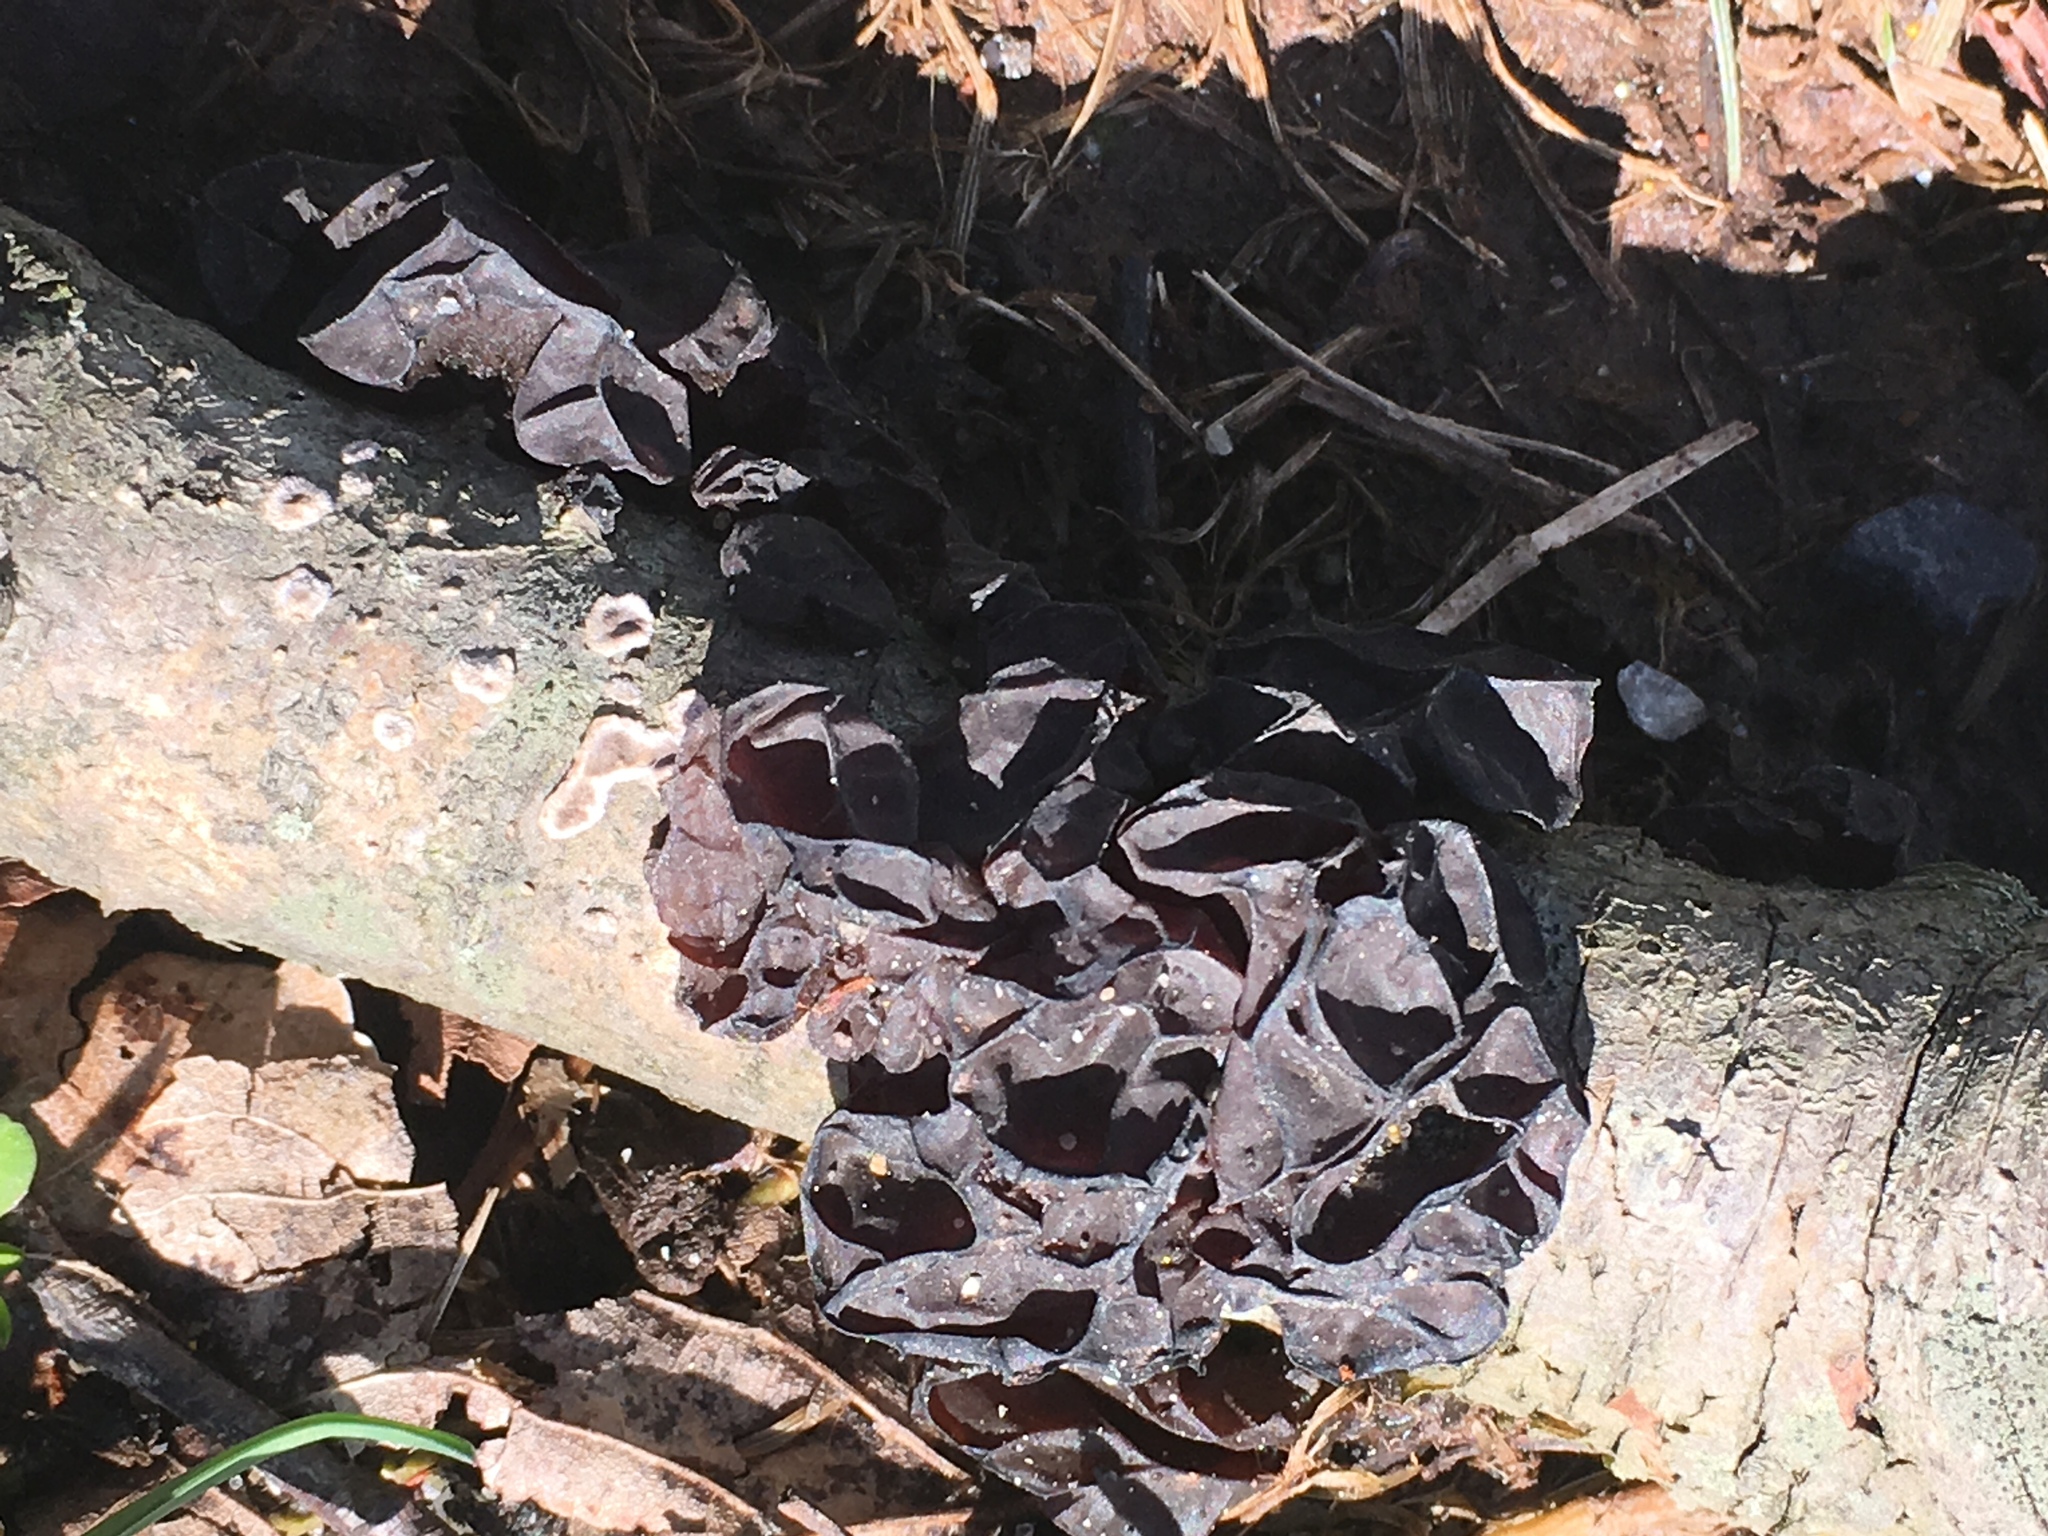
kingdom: Fungi
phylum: Basidiomycota
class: Agaricomycetes
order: Auriculariales
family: Auriculariaceae
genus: Exidia
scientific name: Exidia
